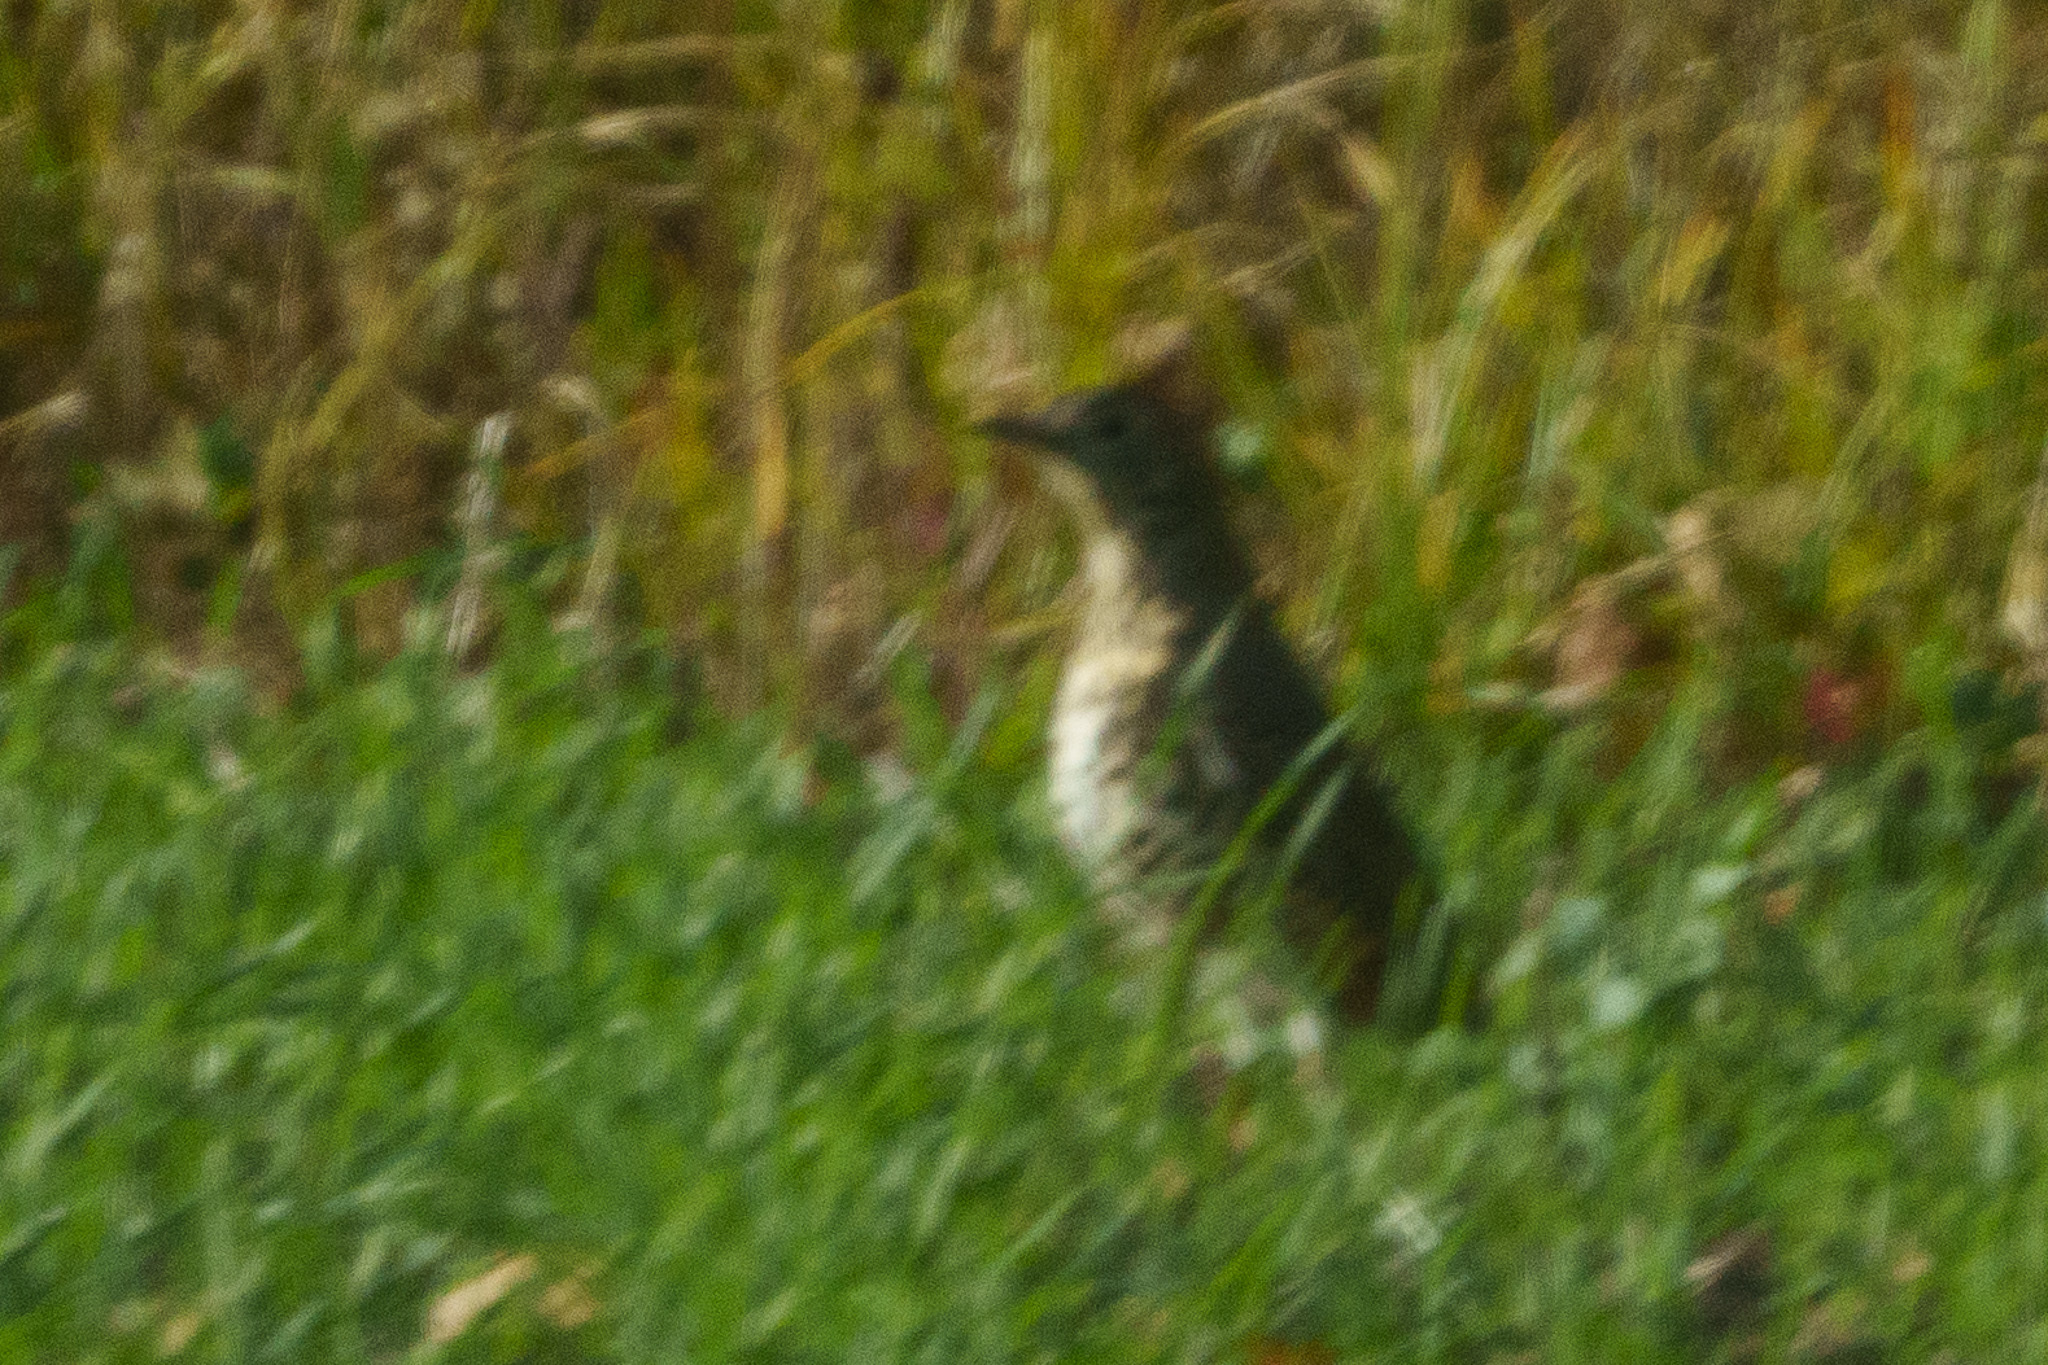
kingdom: Animalia
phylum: Chordata
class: Aves
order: Passeriformes
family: Turdidae
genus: Turdus
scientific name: Turdus viscivorus
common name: Mistle thrush
